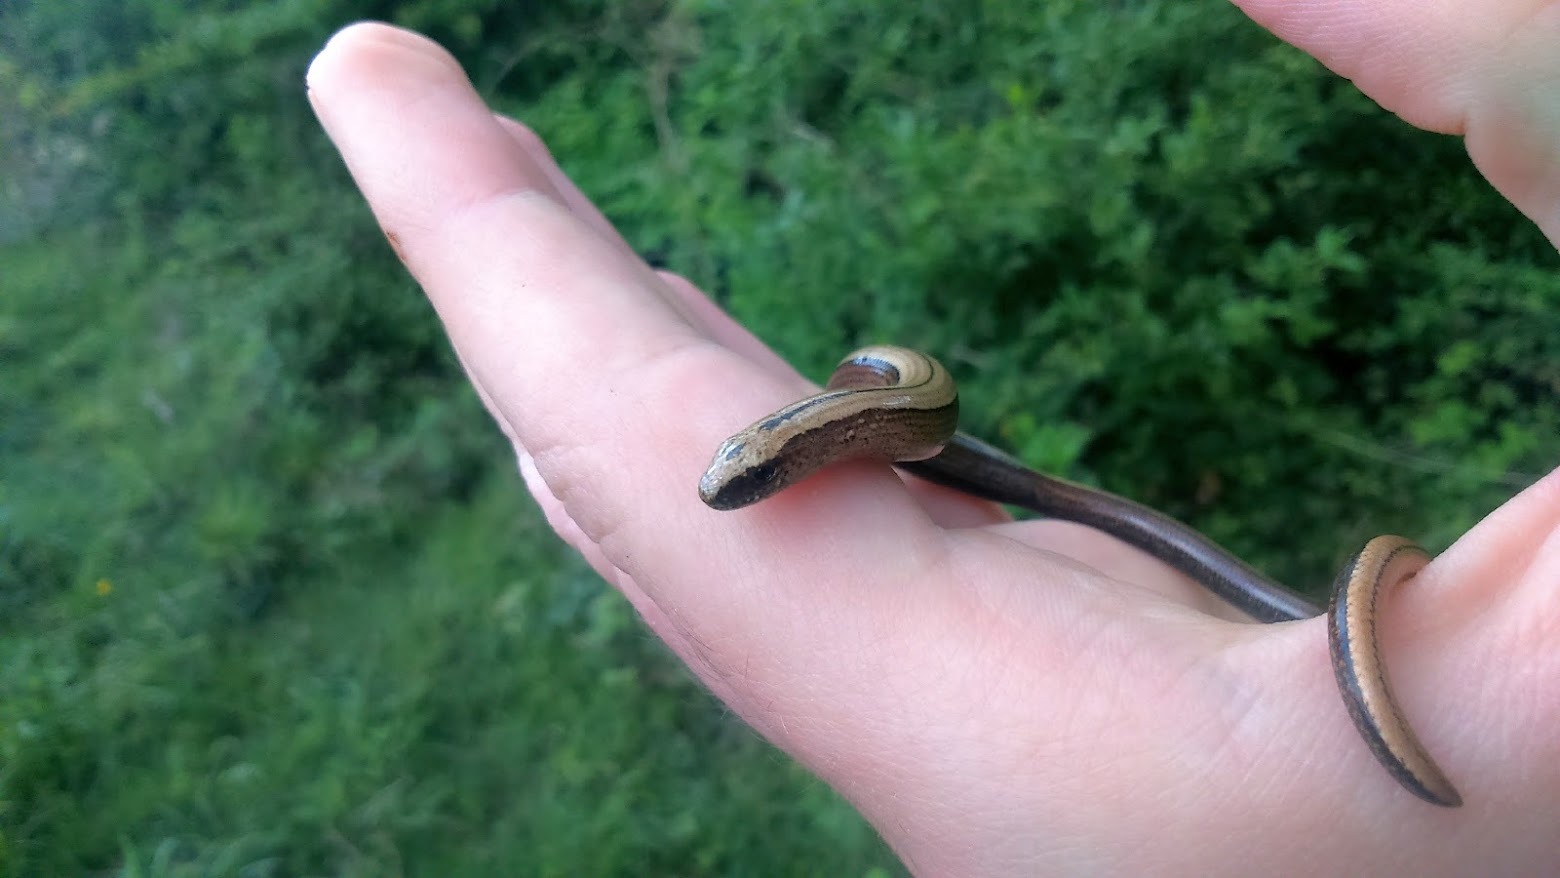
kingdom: Animalia
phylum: Chordata
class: Squamata
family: Anguidae
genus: Anguis
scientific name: Anguis fragilis
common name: Slow worm
